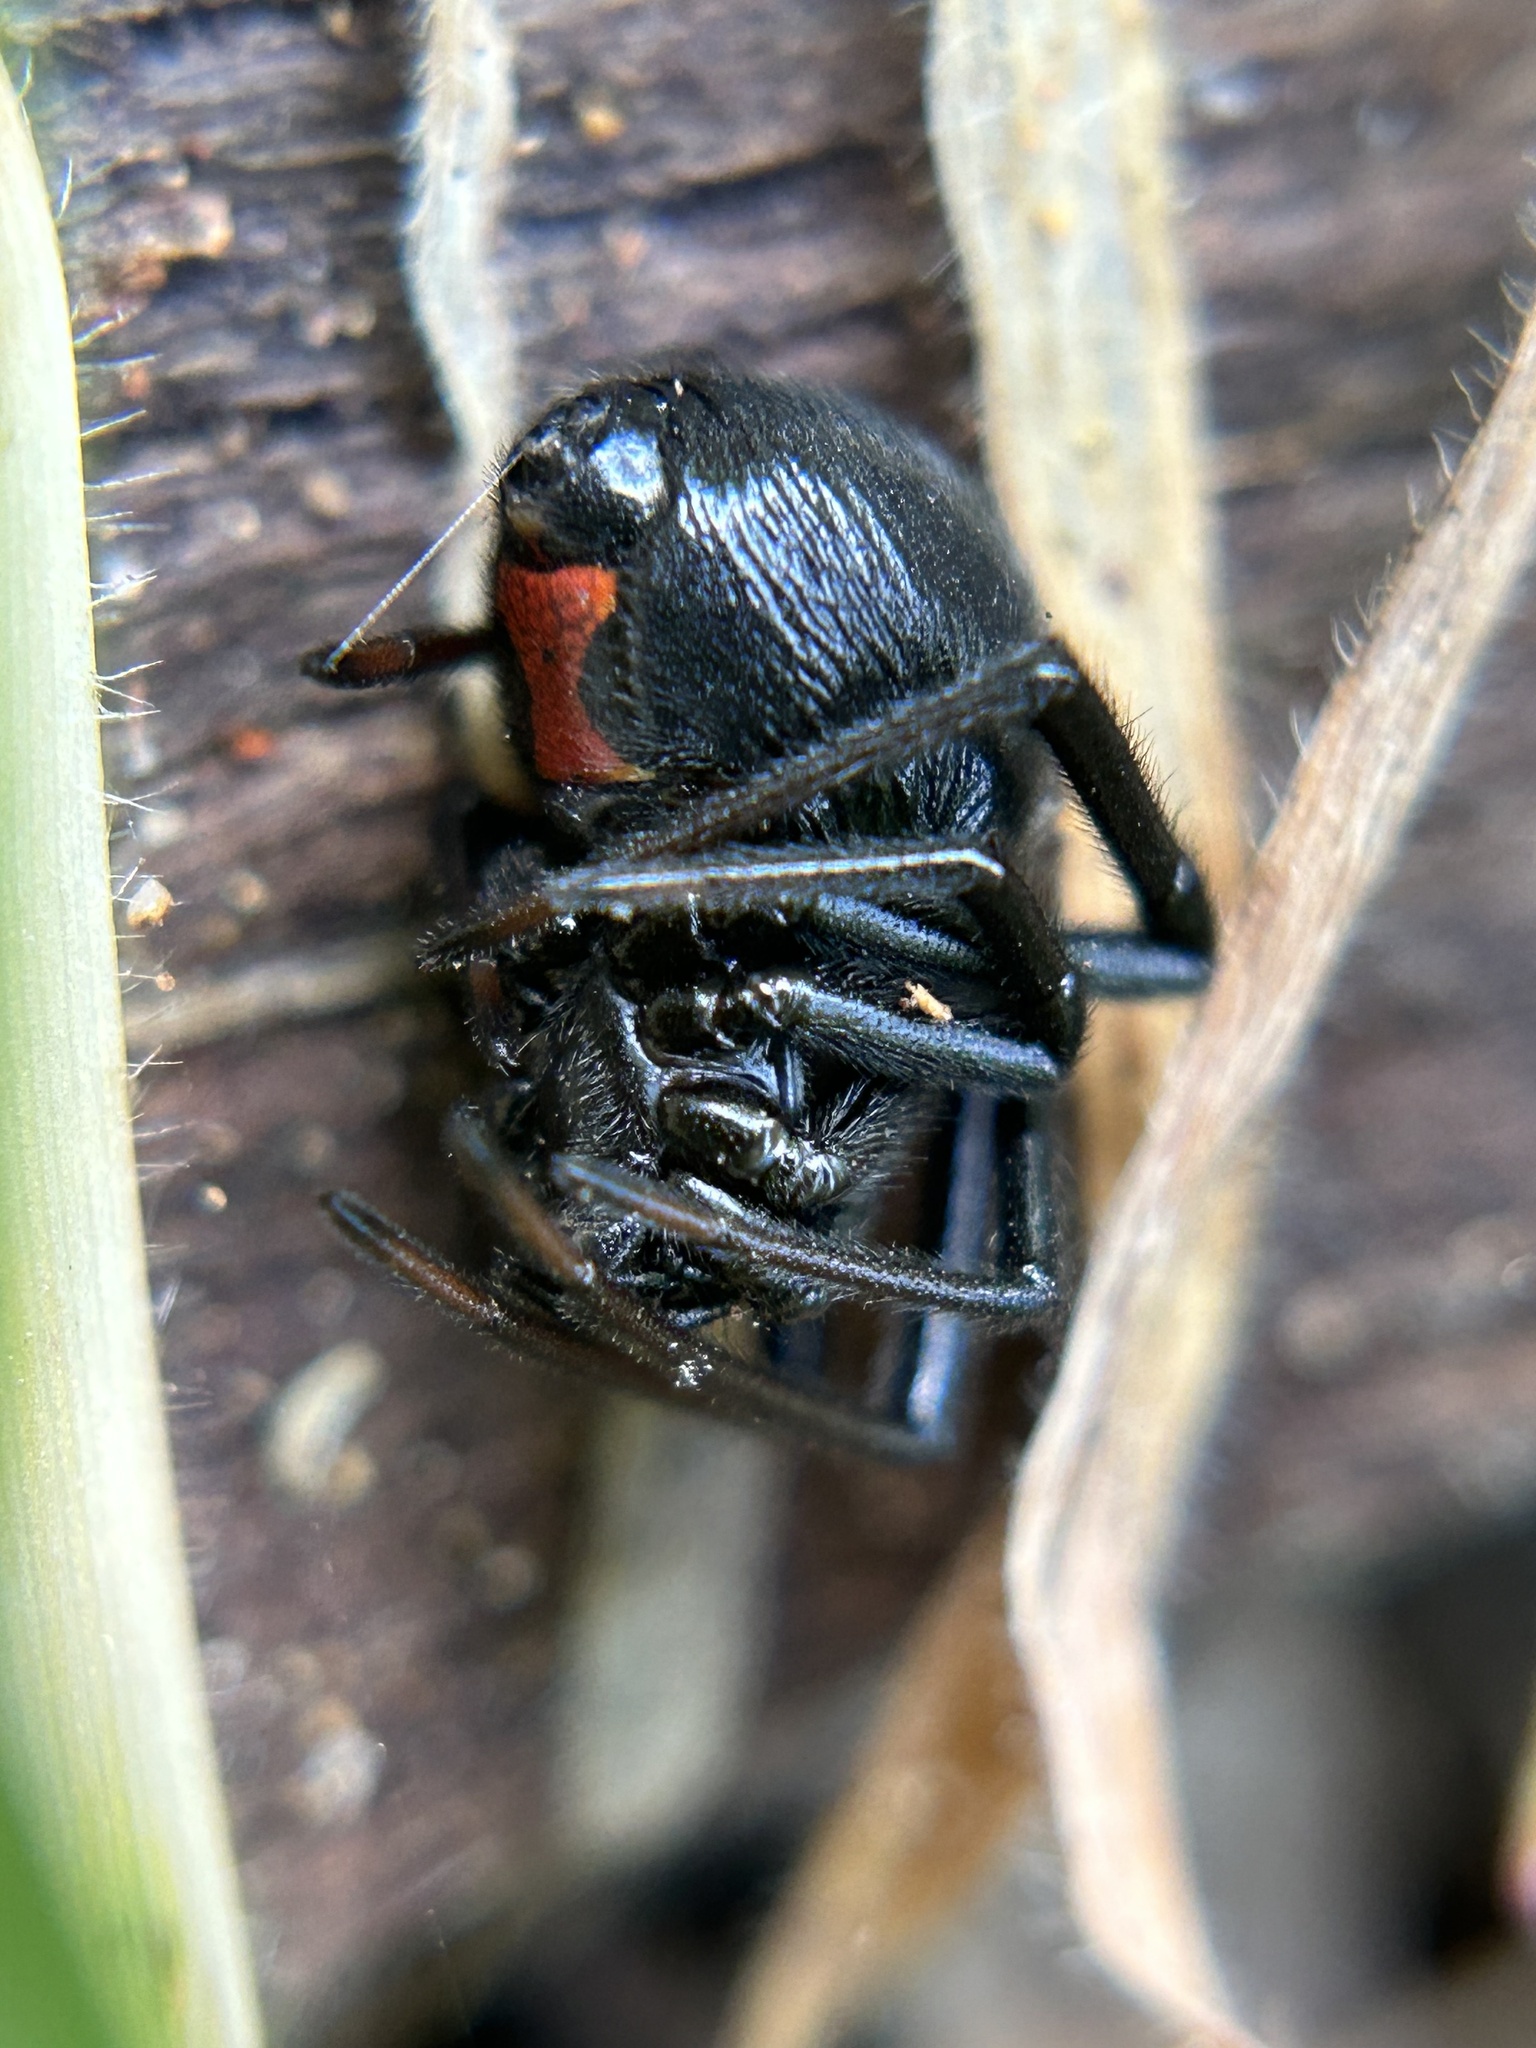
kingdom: Animalia
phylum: Arthropoda
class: Arachnida
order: Araneae
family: Theridiidae
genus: Latrodectus
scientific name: Latrodectus hesperus
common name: Western black widow
